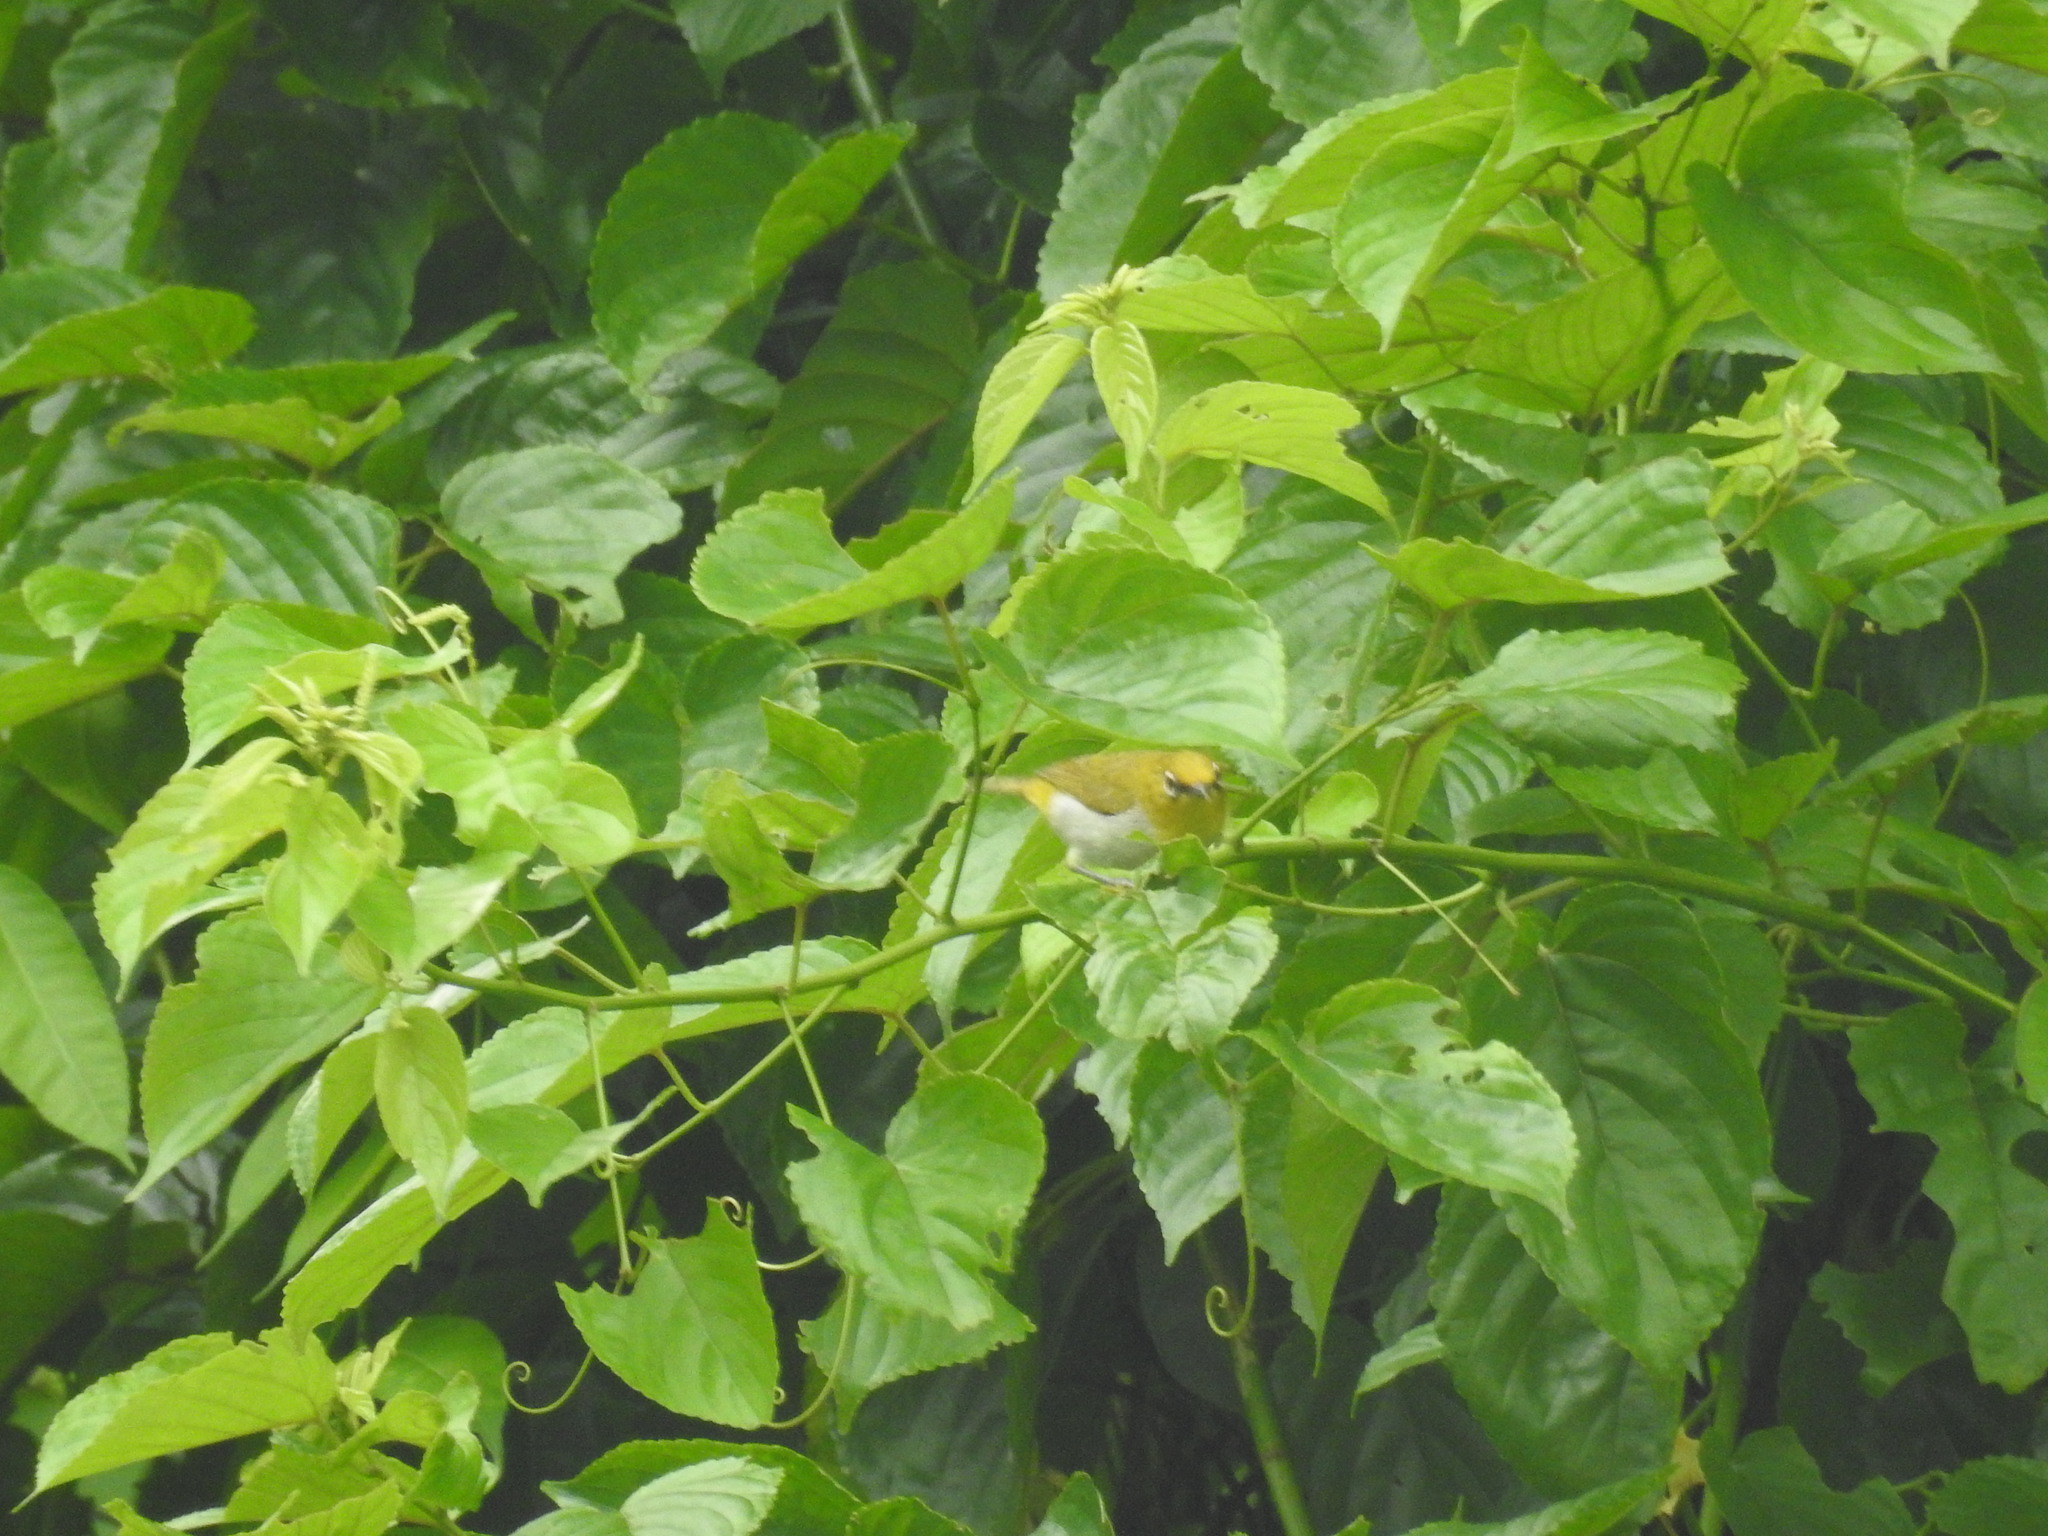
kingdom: Animalia
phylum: Chordata
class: Aves
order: Passeriformes
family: Zosteropidae
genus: Zosterops
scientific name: Zosterops palpebrosus
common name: Oriental white-eye
